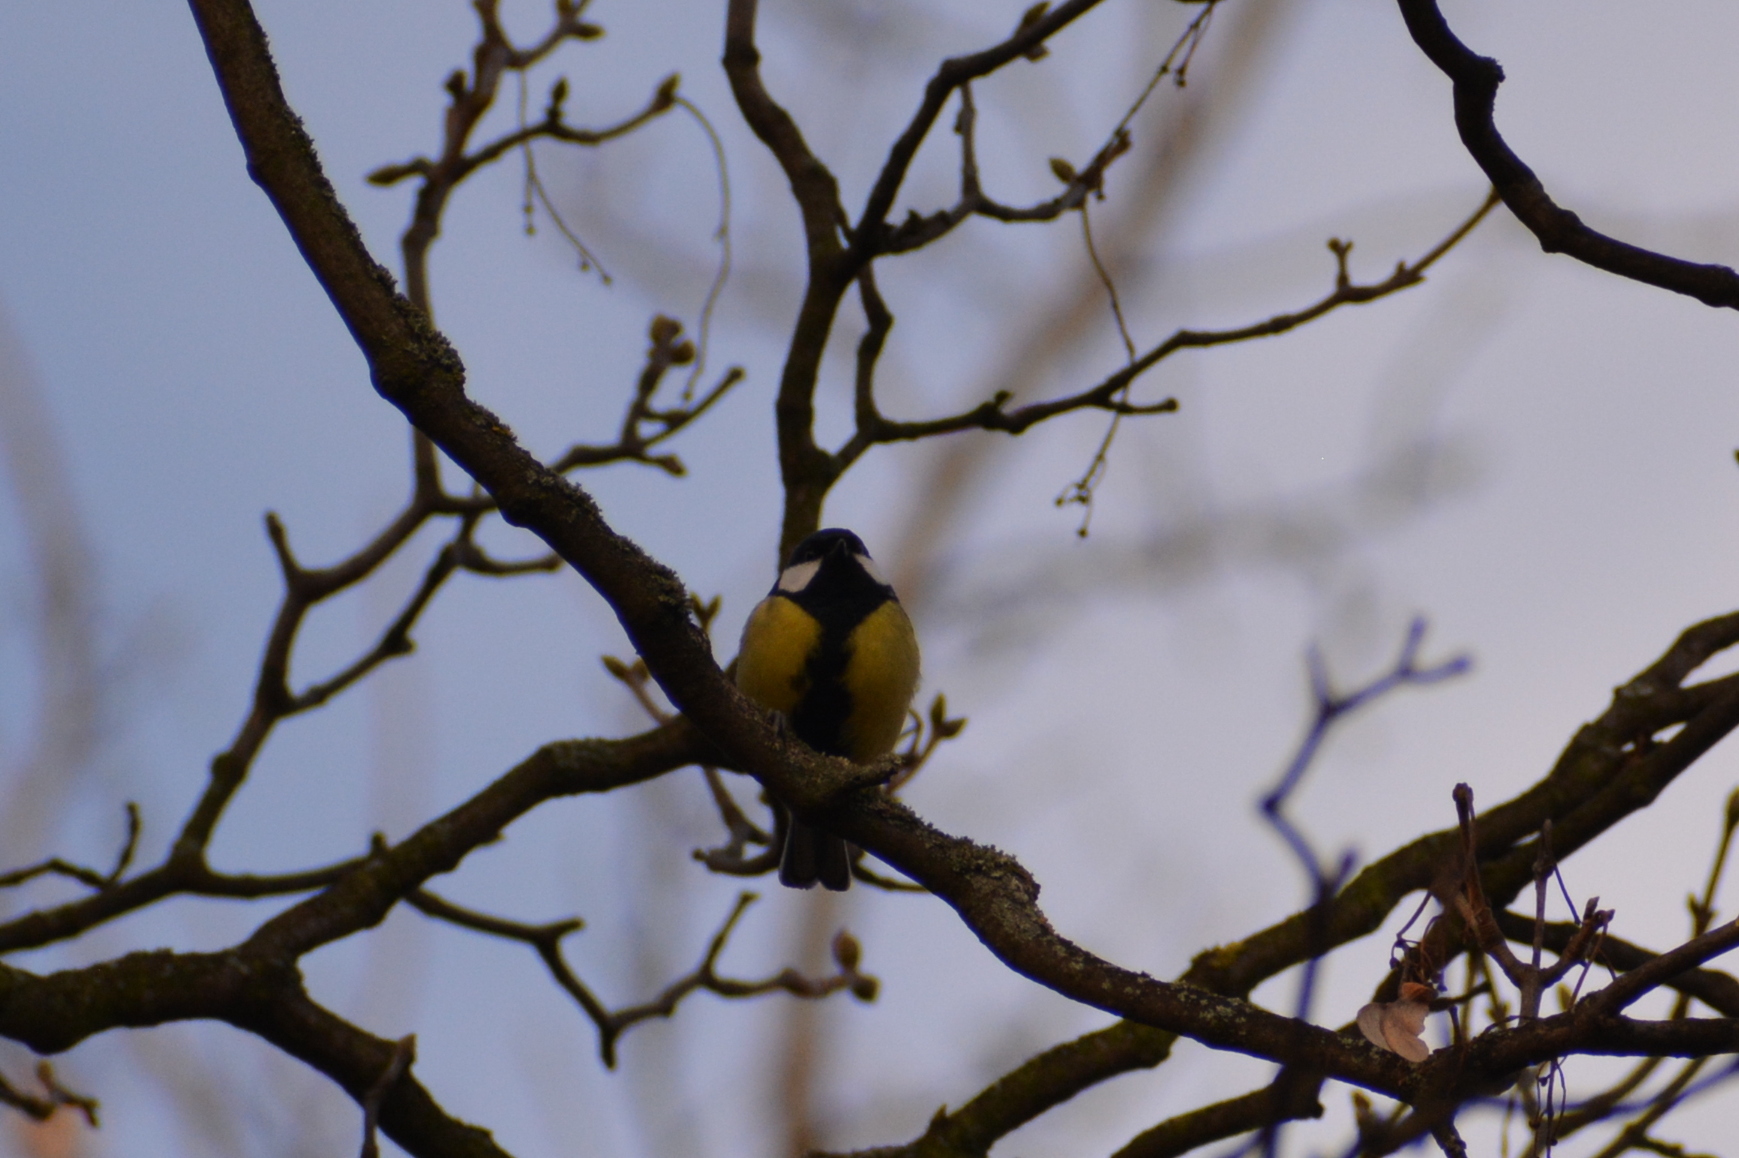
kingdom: Animalia
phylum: Chordata
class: Aves
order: Passeriformes
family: Paridae
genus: Parus
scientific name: Parus major
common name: Great tit
